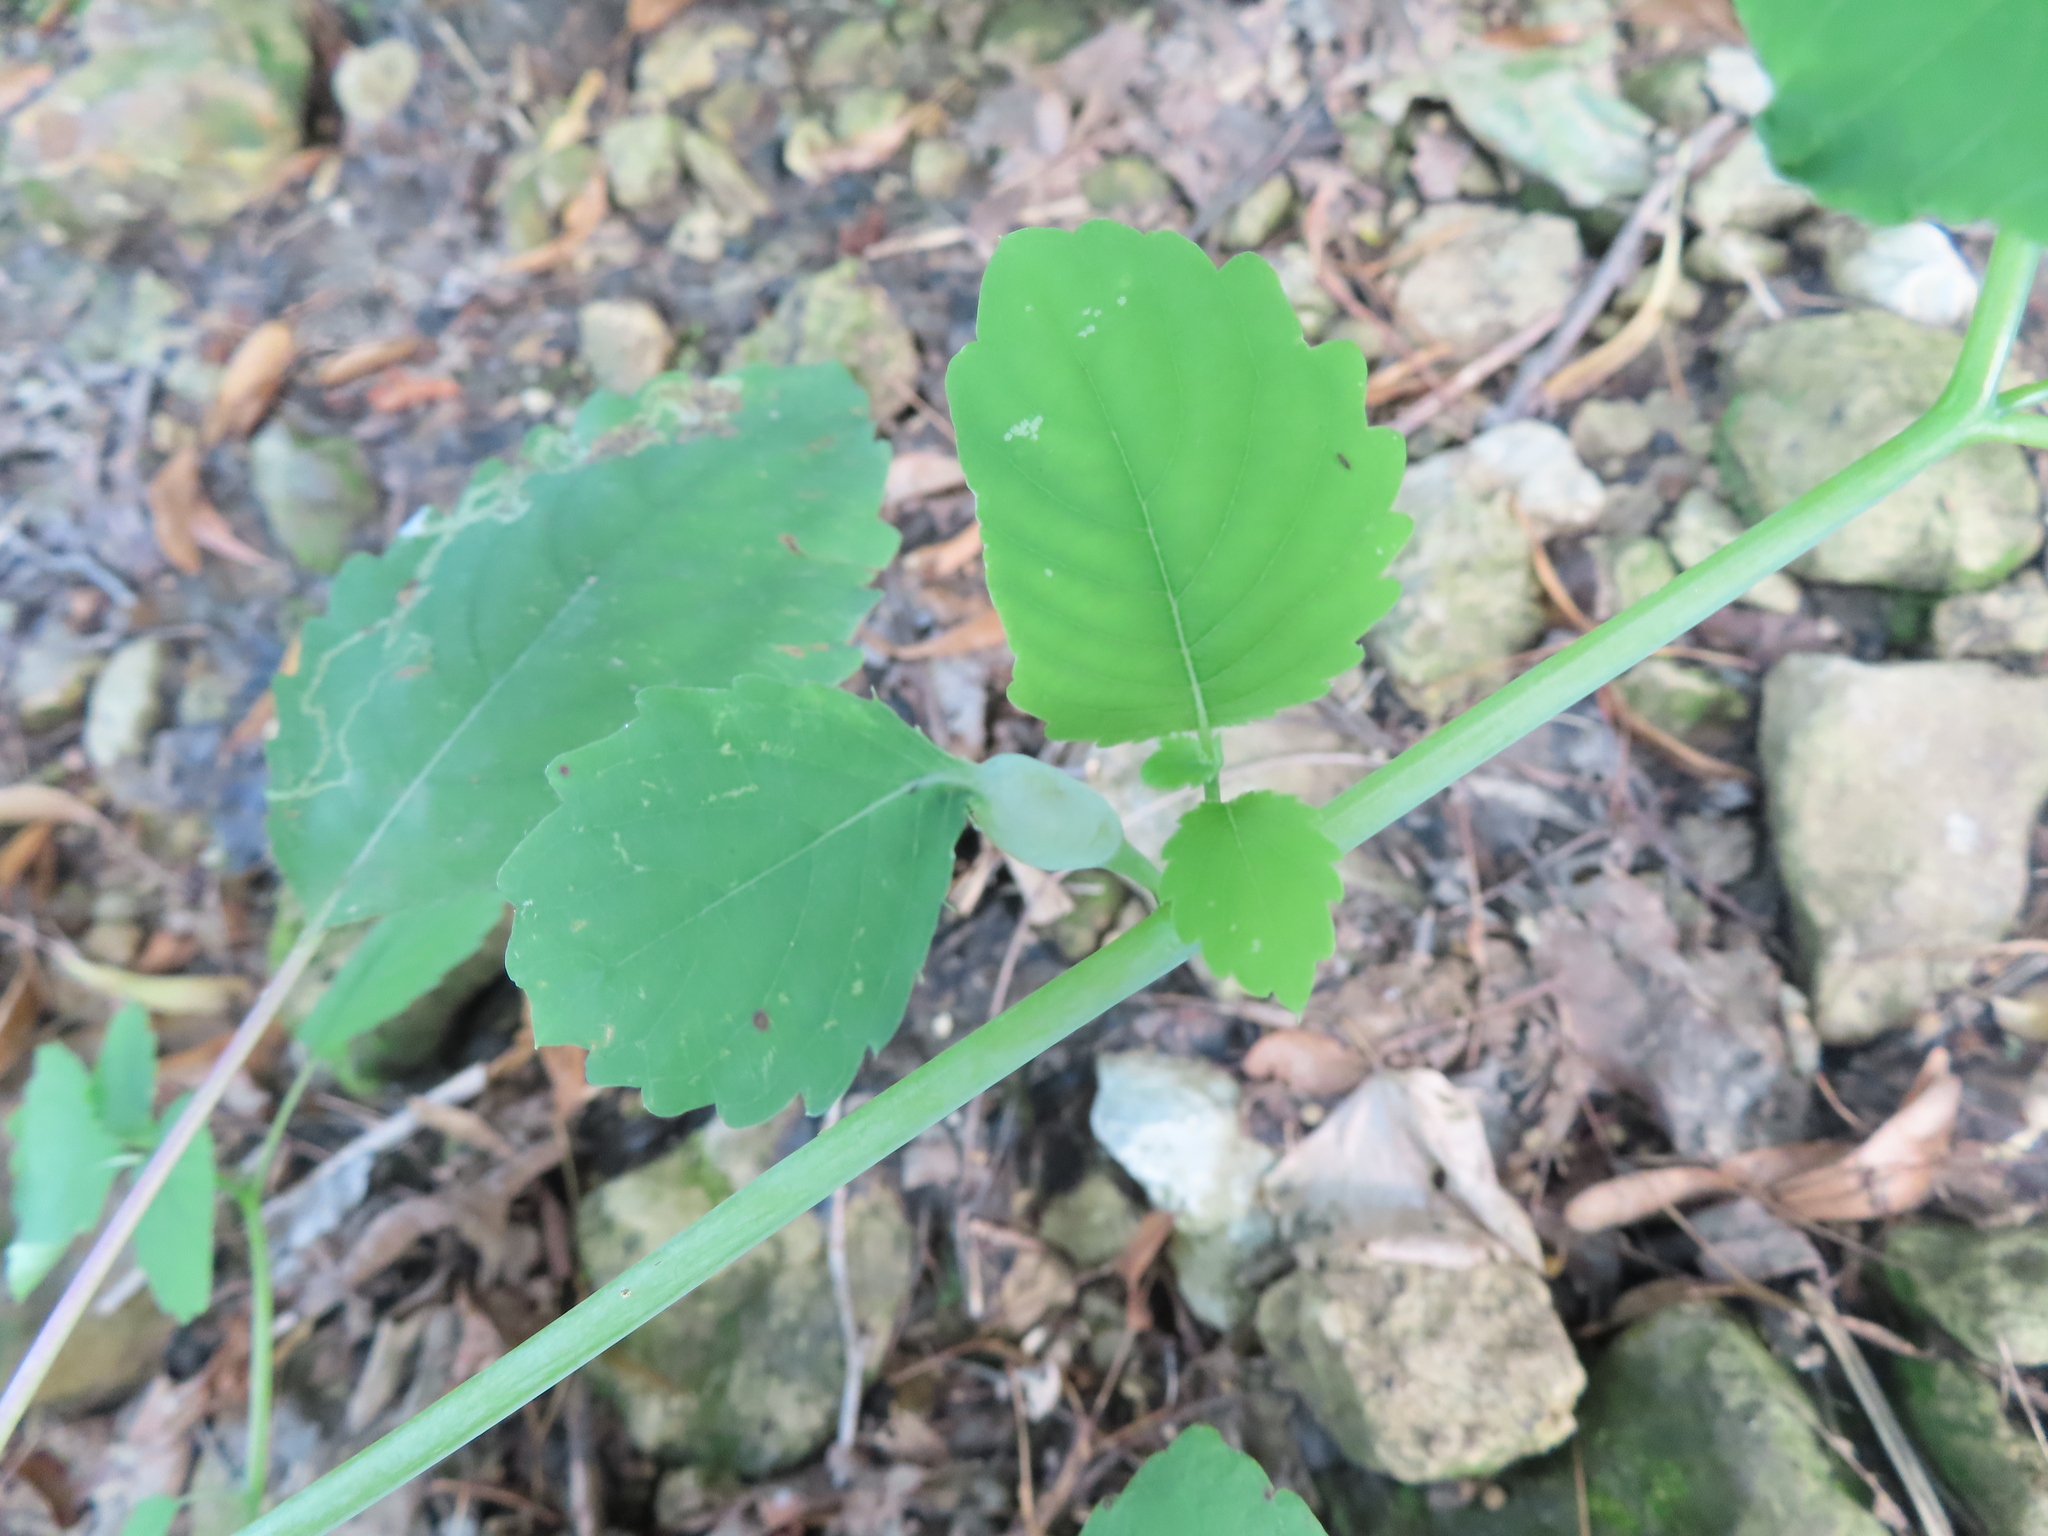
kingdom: Animalia
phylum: Arthropoda
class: Insecta
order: Diptera
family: Cecidomyiidae
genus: Neolasioptera
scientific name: Neolasioptera impatientifolia
